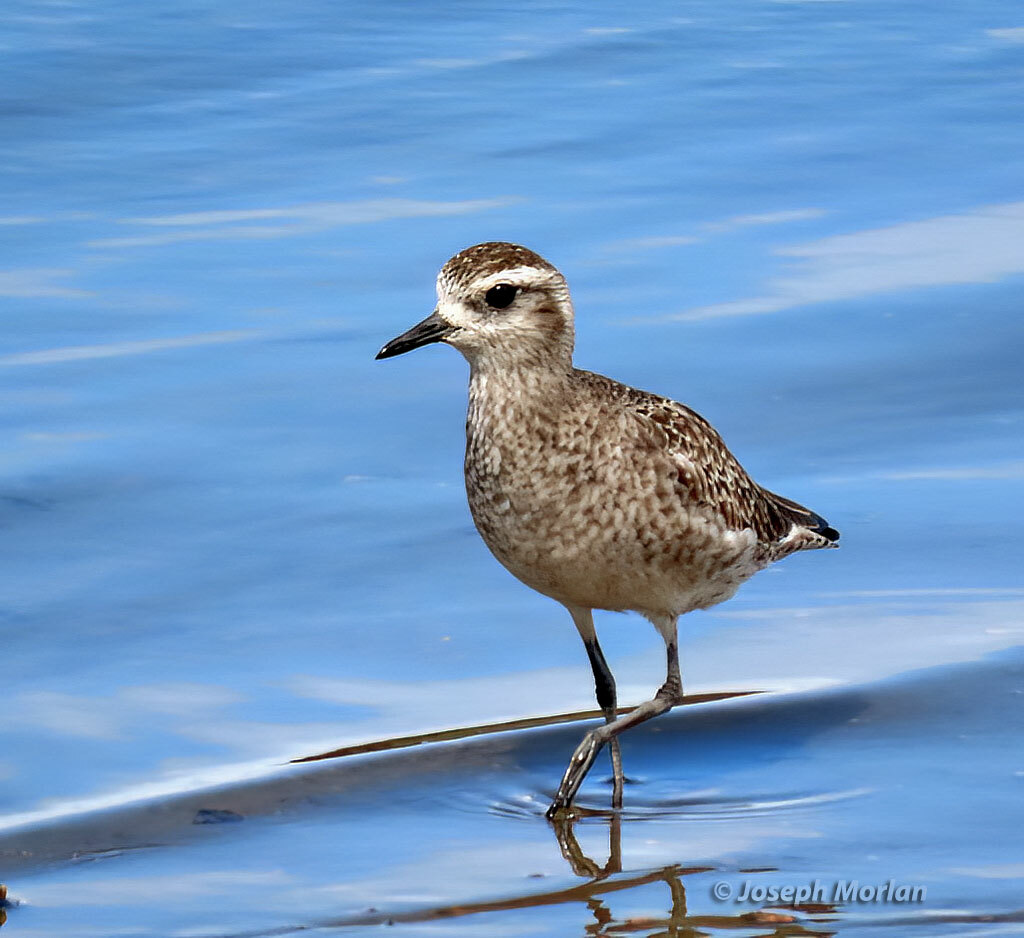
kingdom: Animalia
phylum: Chordata
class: Aves
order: Charadriiformes
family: Charadriidae
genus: Pluvialis
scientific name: Pluvialis dominica
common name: American golden plover
